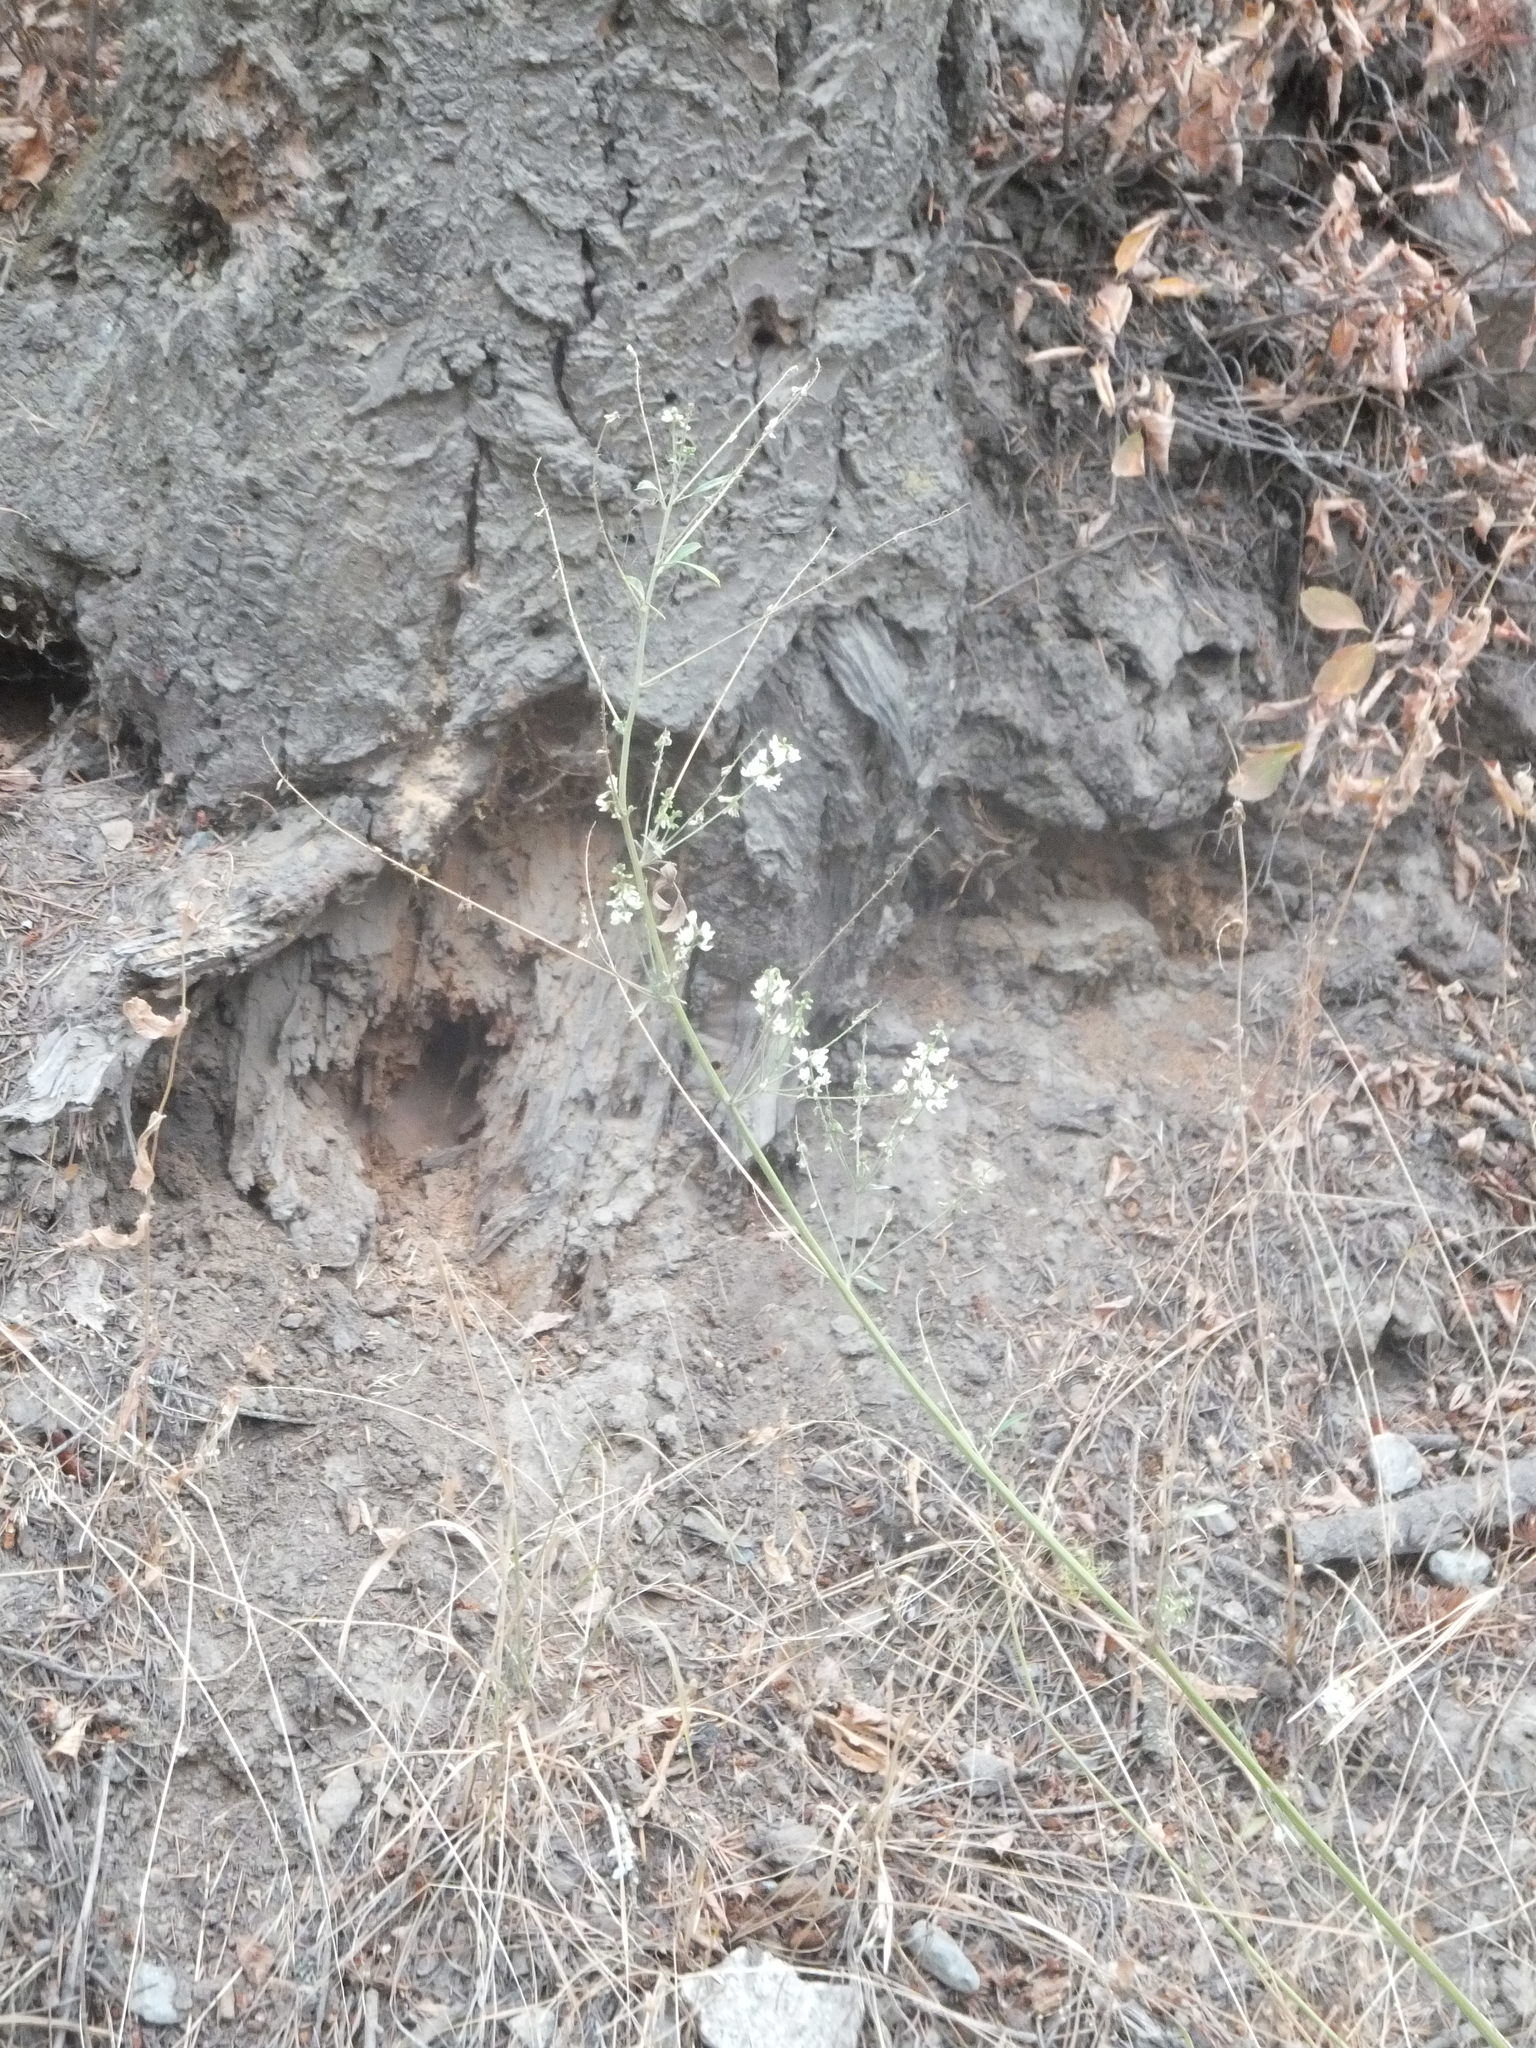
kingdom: Plantae
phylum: Tracheophyta
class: Magnoliopsida
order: Fabales
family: Fabaceae
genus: Melilotus
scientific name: Melilotus albus
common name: White melilot
